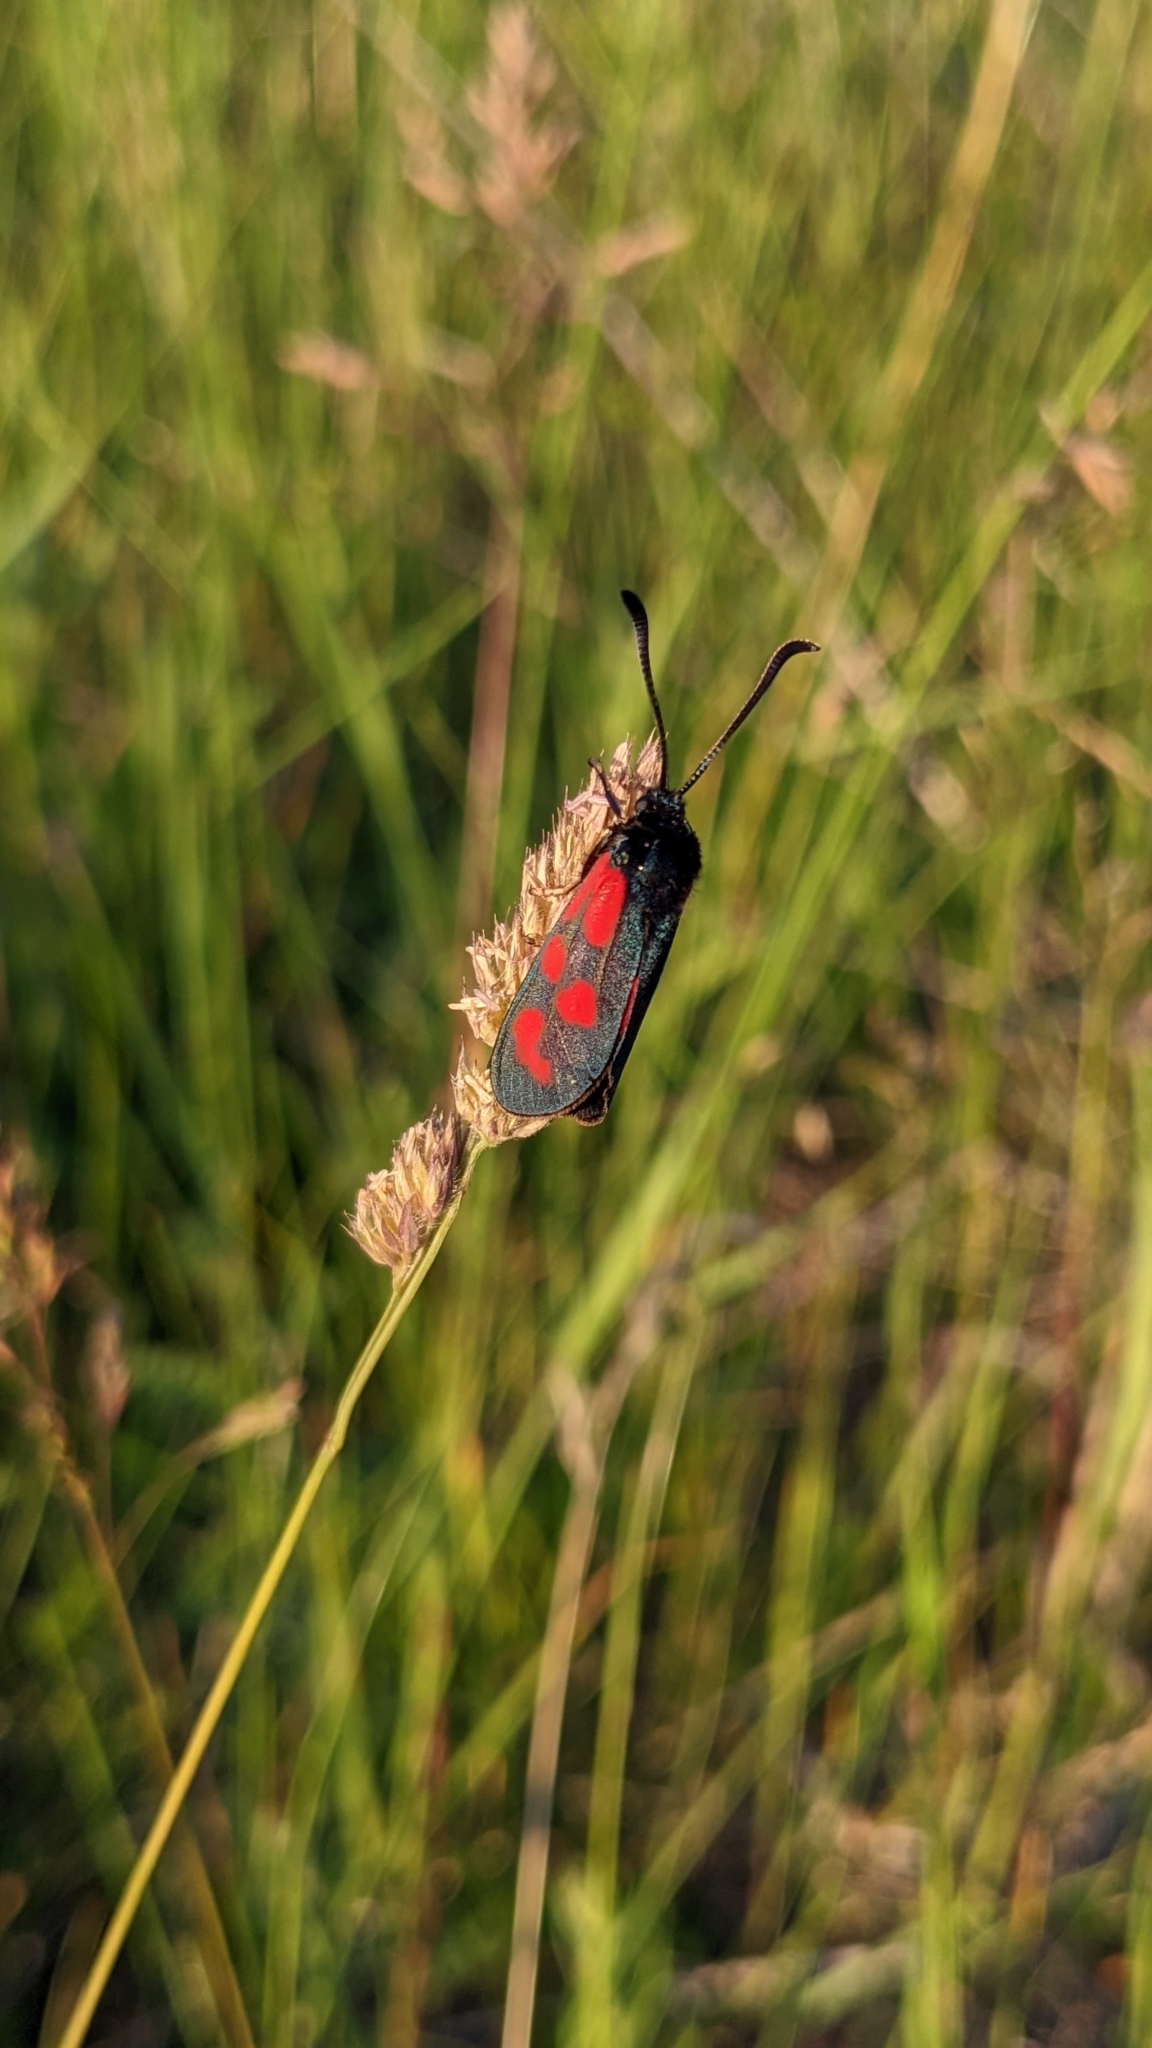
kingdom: Animalia
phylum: Arthropoda
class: Insecta
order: Lepidoptera
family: Zygaenidae
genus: Zygaena
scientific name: Zygaena loti
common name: Slender scotch burnet
